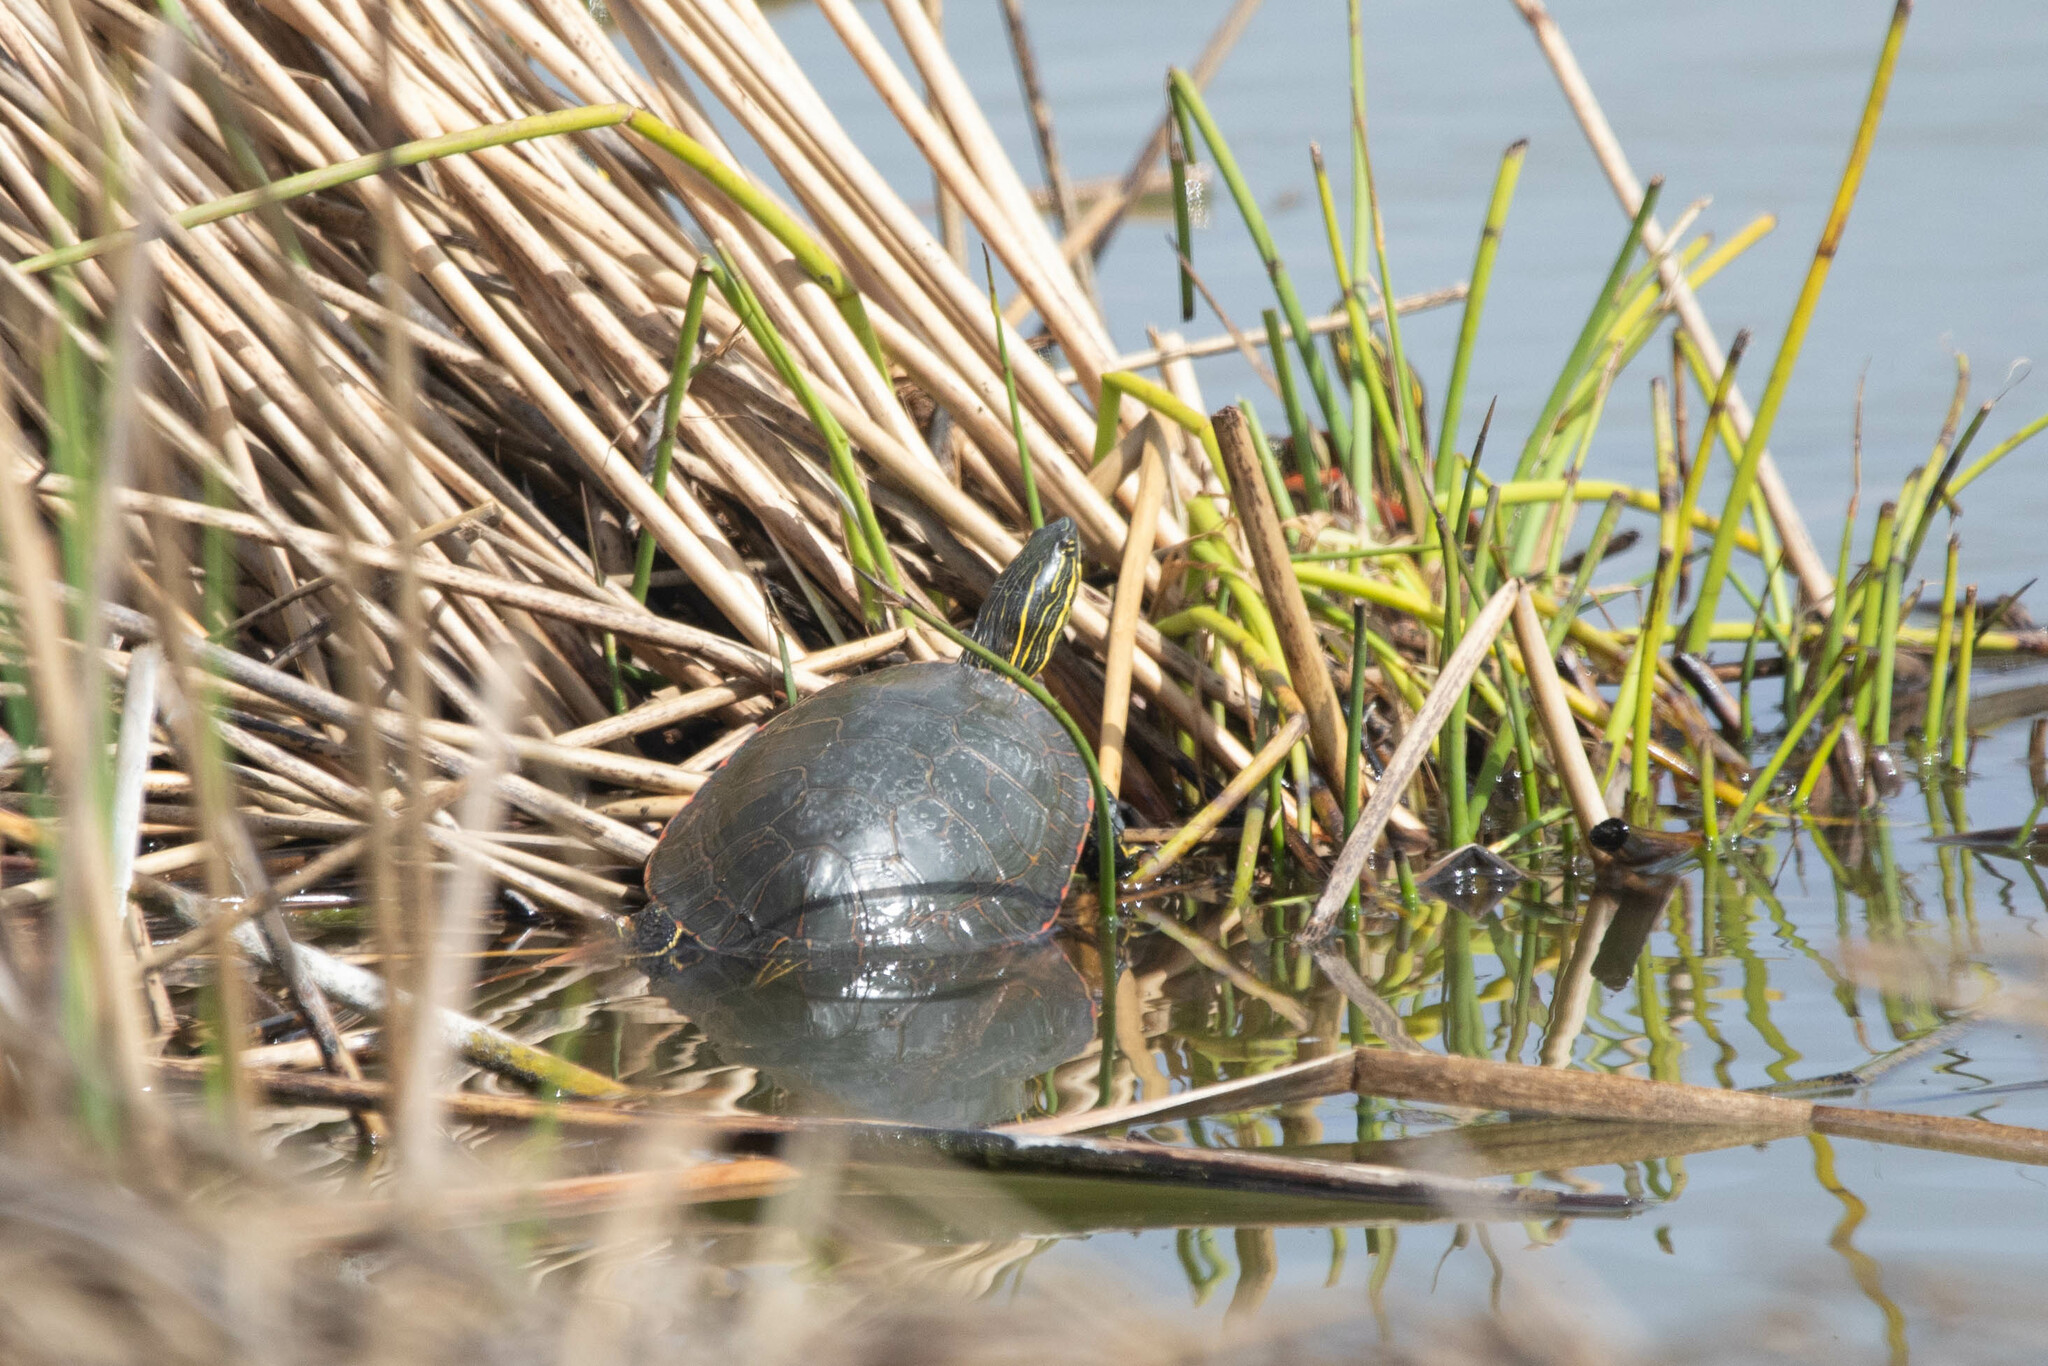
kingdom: Animalia
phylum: Chordata
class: Testudines
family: Emydidae
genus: Chrysemys
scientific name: Chrysemys picta
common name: Painted turtle
